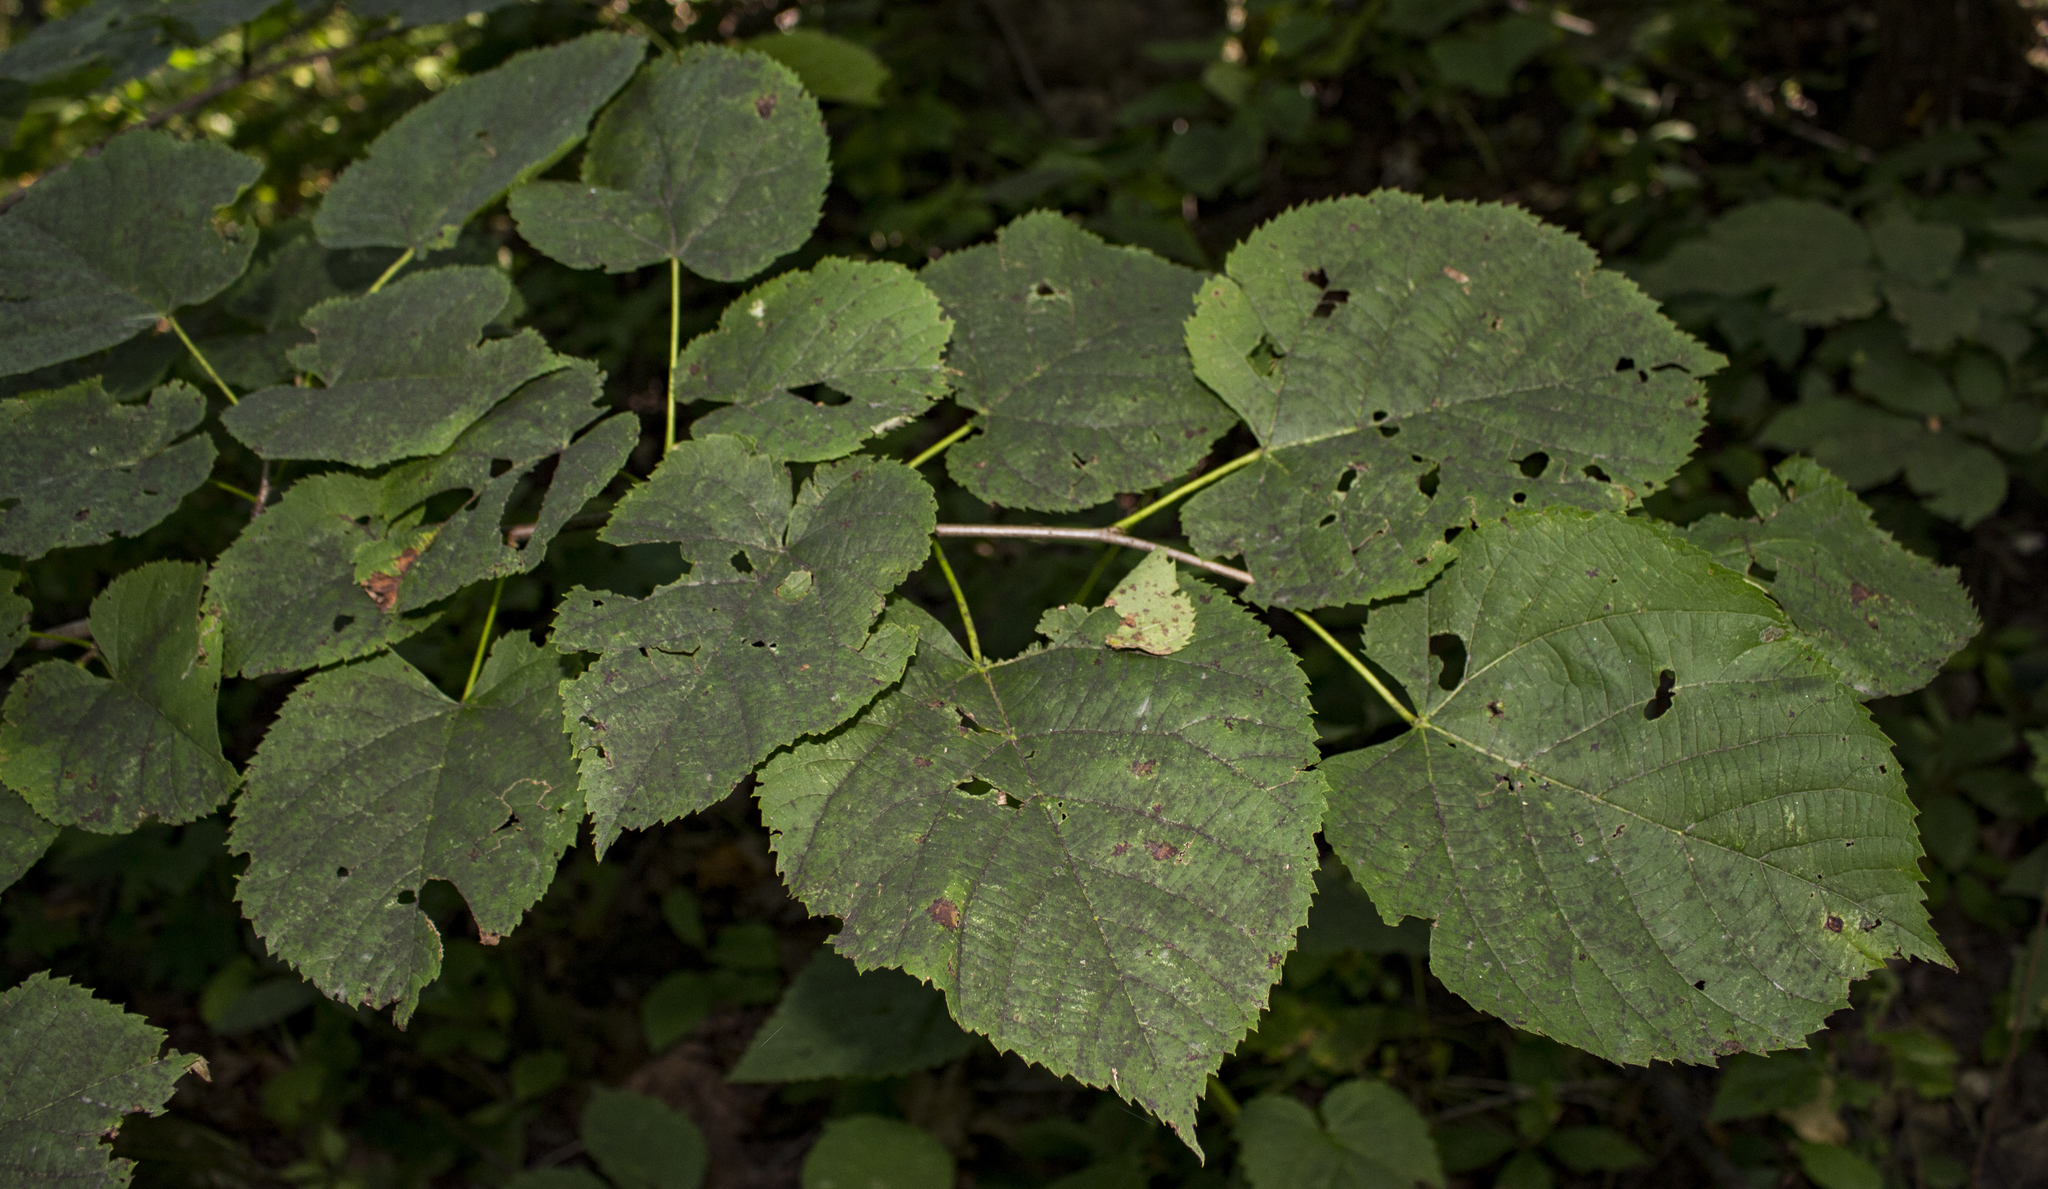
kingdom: Plantae
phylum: Tracheophyta
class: Magnoliopsida
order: Malvales
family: Malvaceae
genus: Tilia
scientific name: Tilia americana
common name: Basswood
